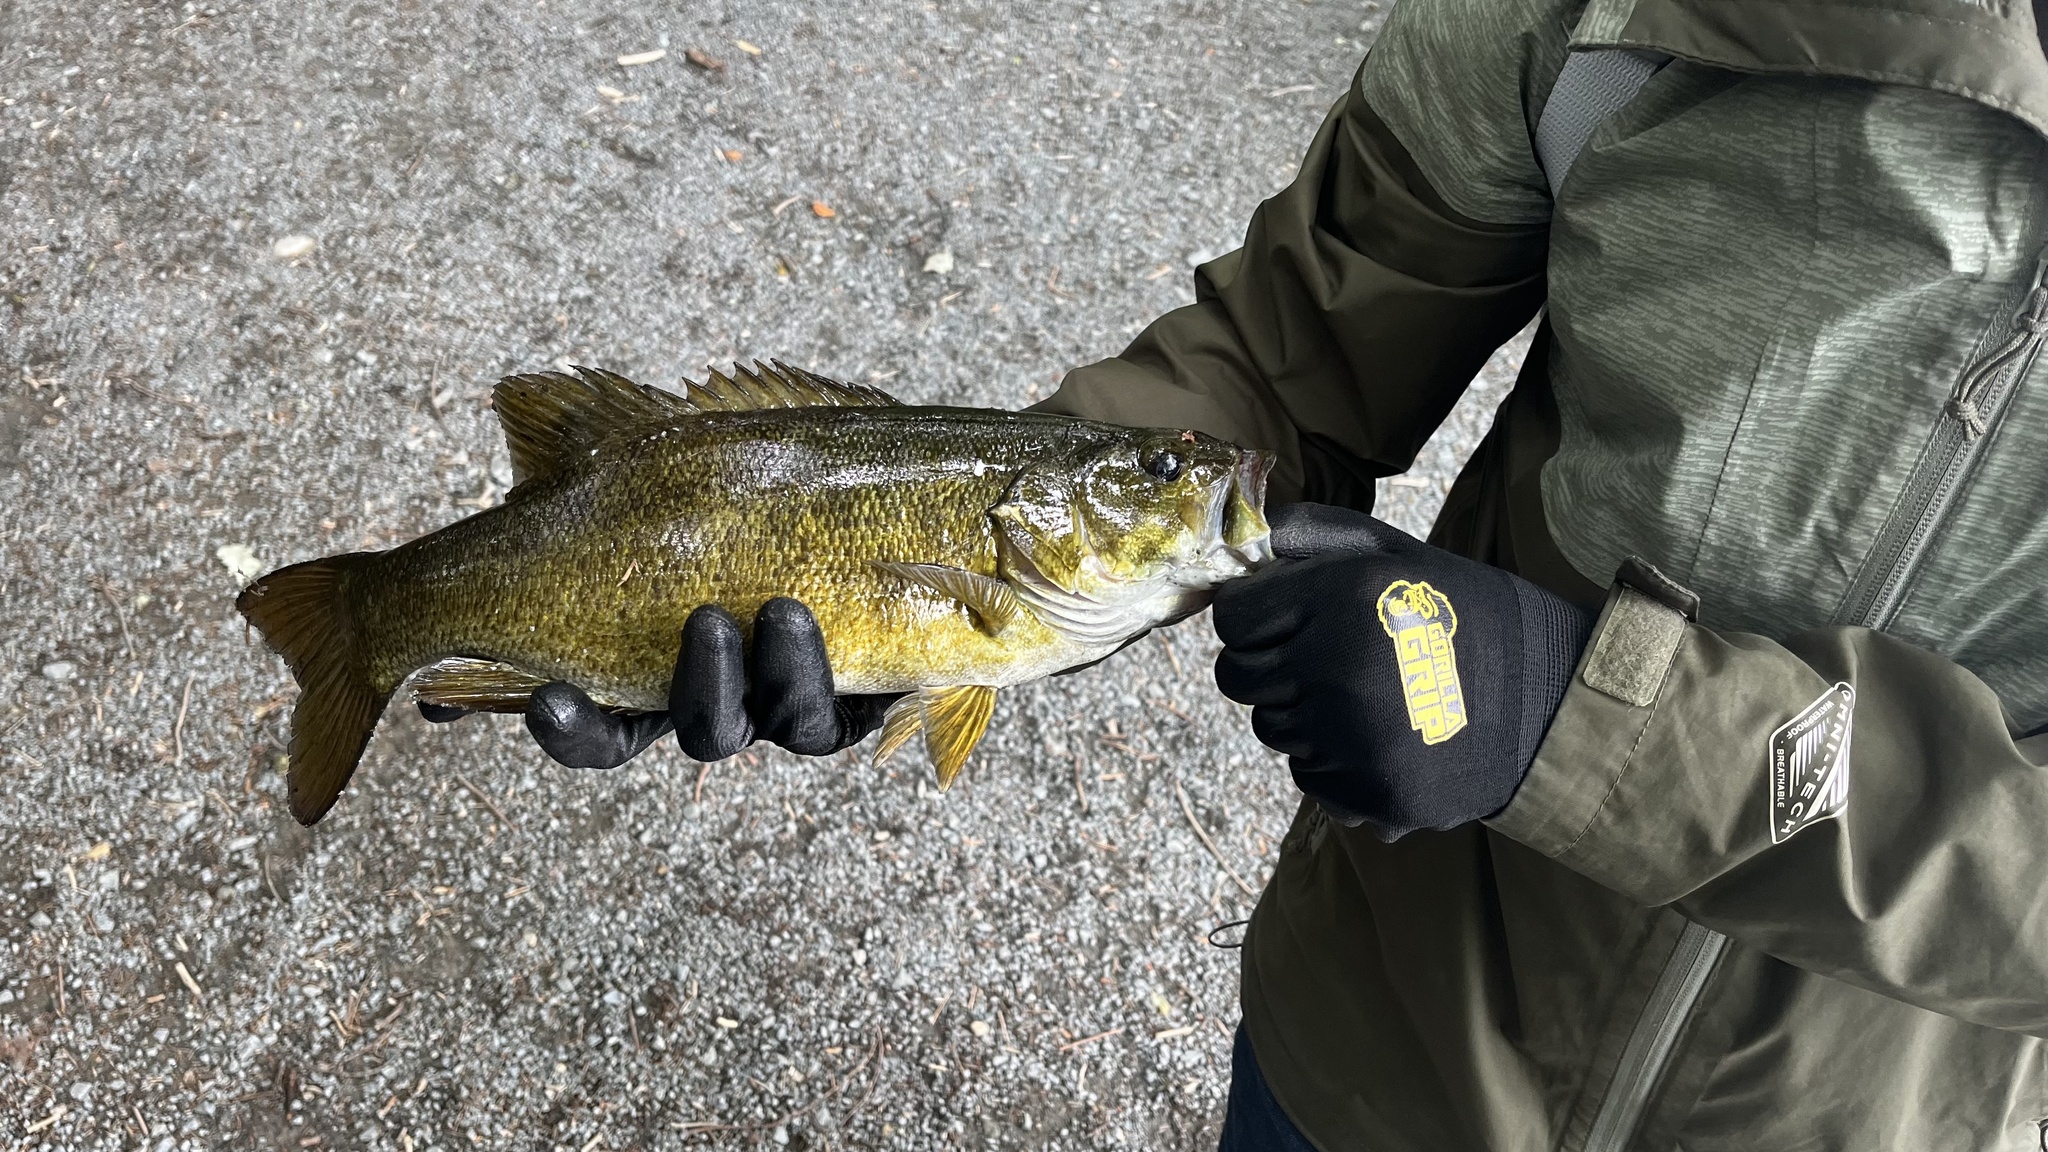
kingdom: Animalia
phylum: Chordata
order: Perciformes
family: Centrarchidae
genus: Micropterus
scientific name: Micropterus dolomieu
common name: Smallmouth bass
